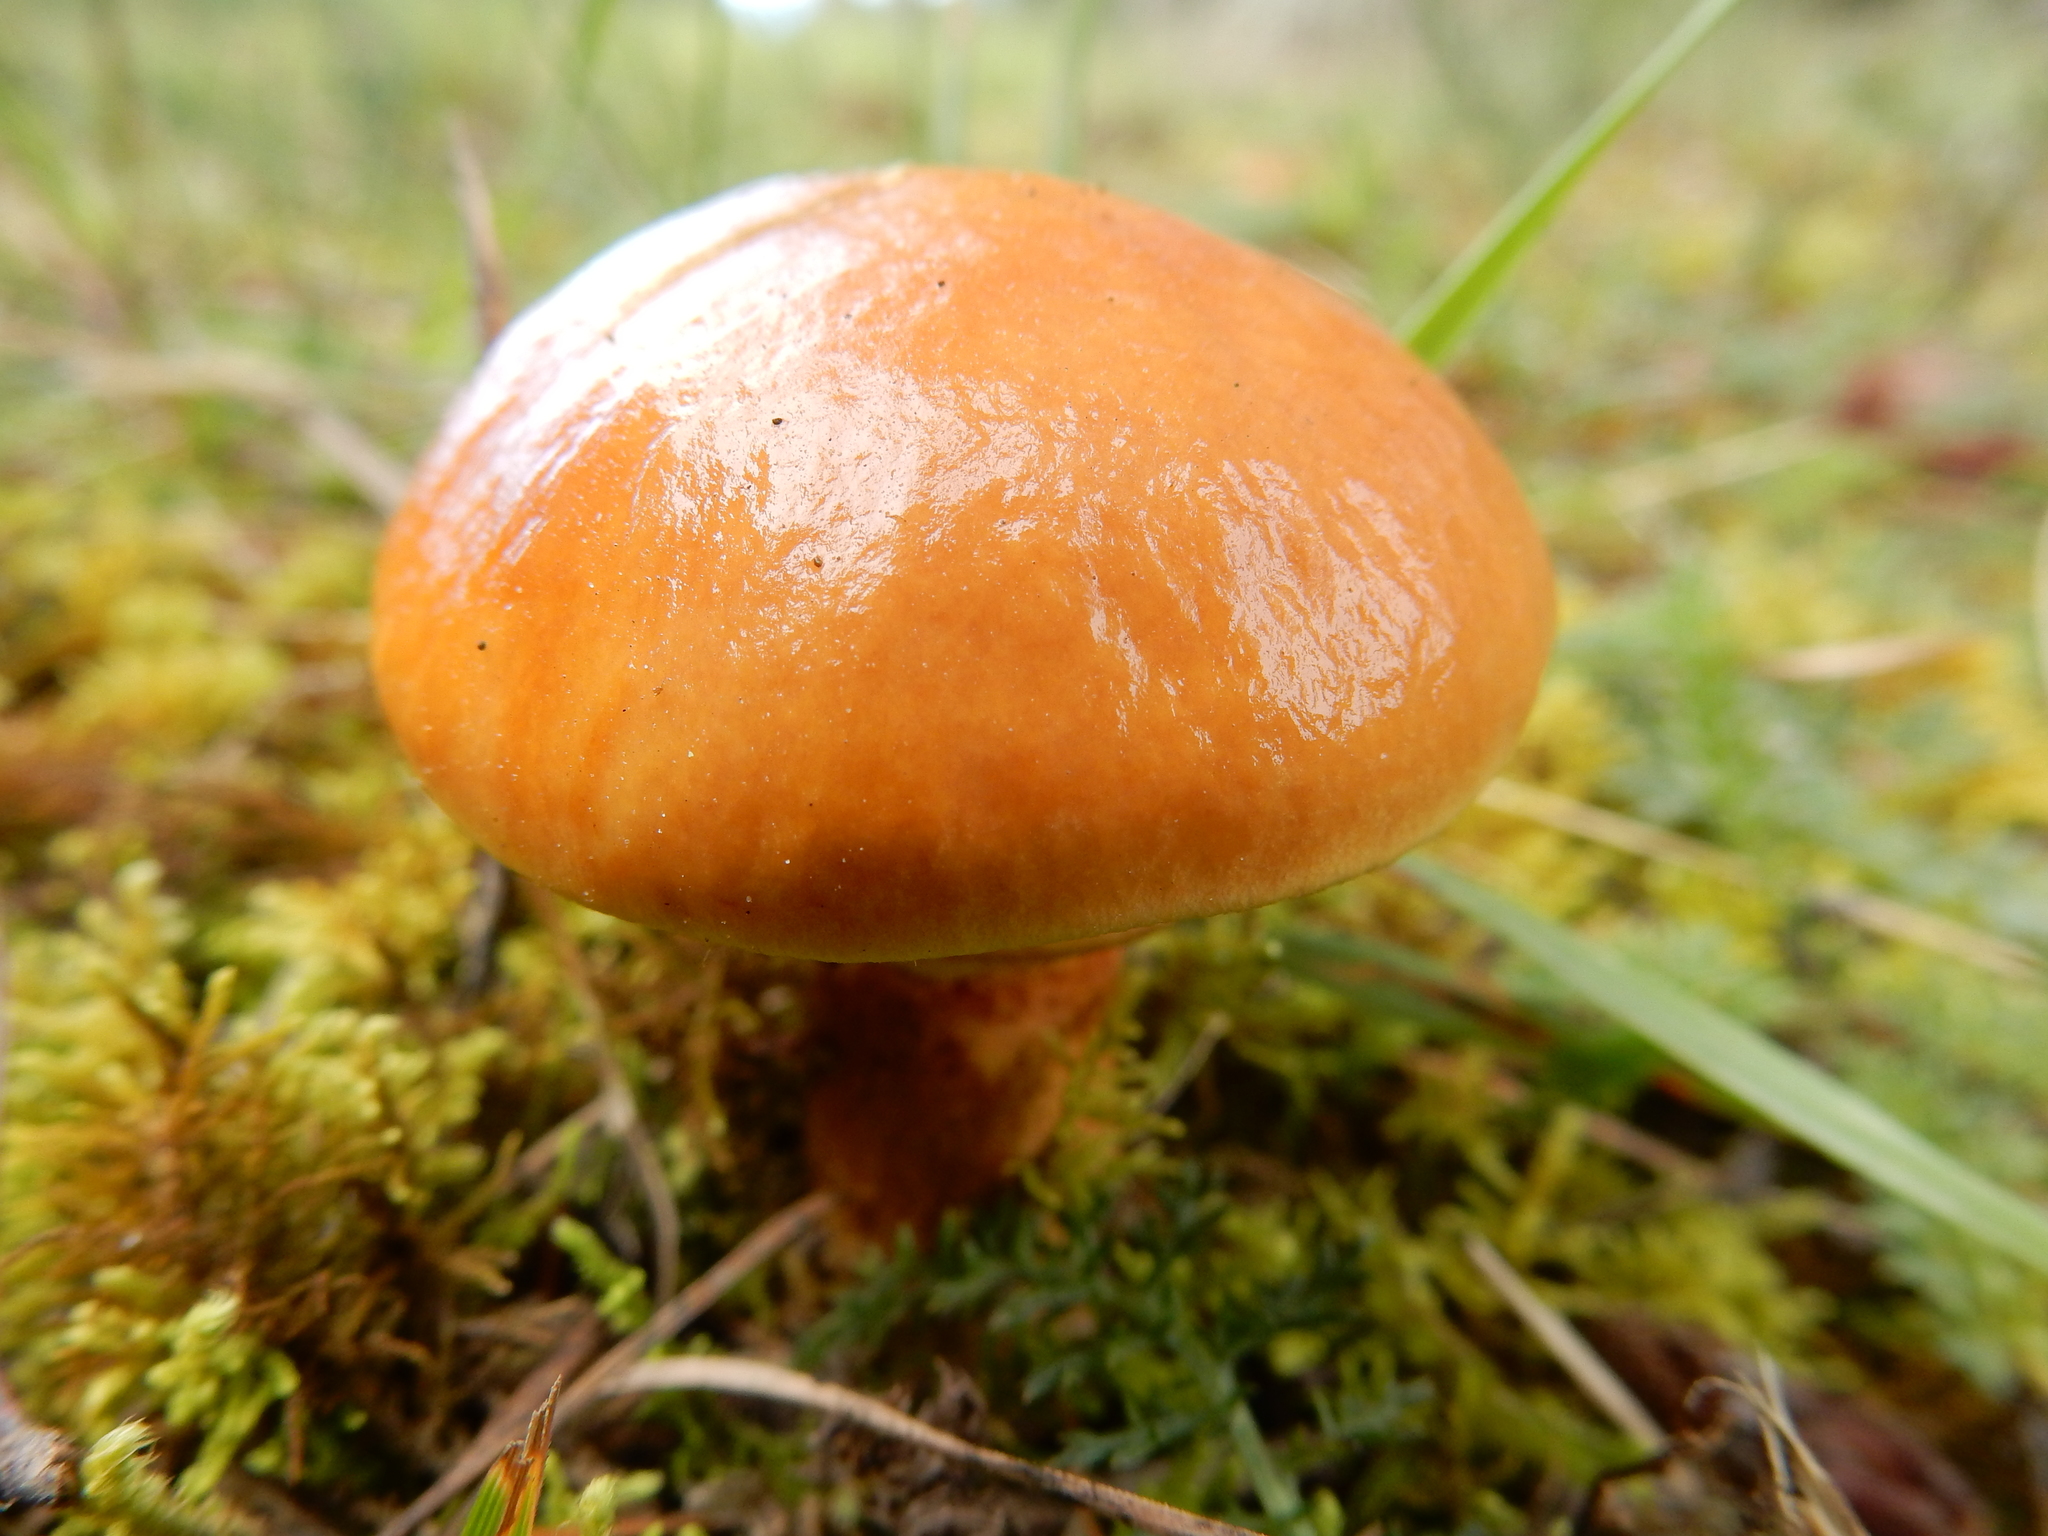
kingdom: Fungi
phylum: Basidiomycota
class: Agaricomycetes
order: Boletales
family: Suillaceae
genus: Suillus
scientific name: Suillus grevillei
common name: Larch bolete
